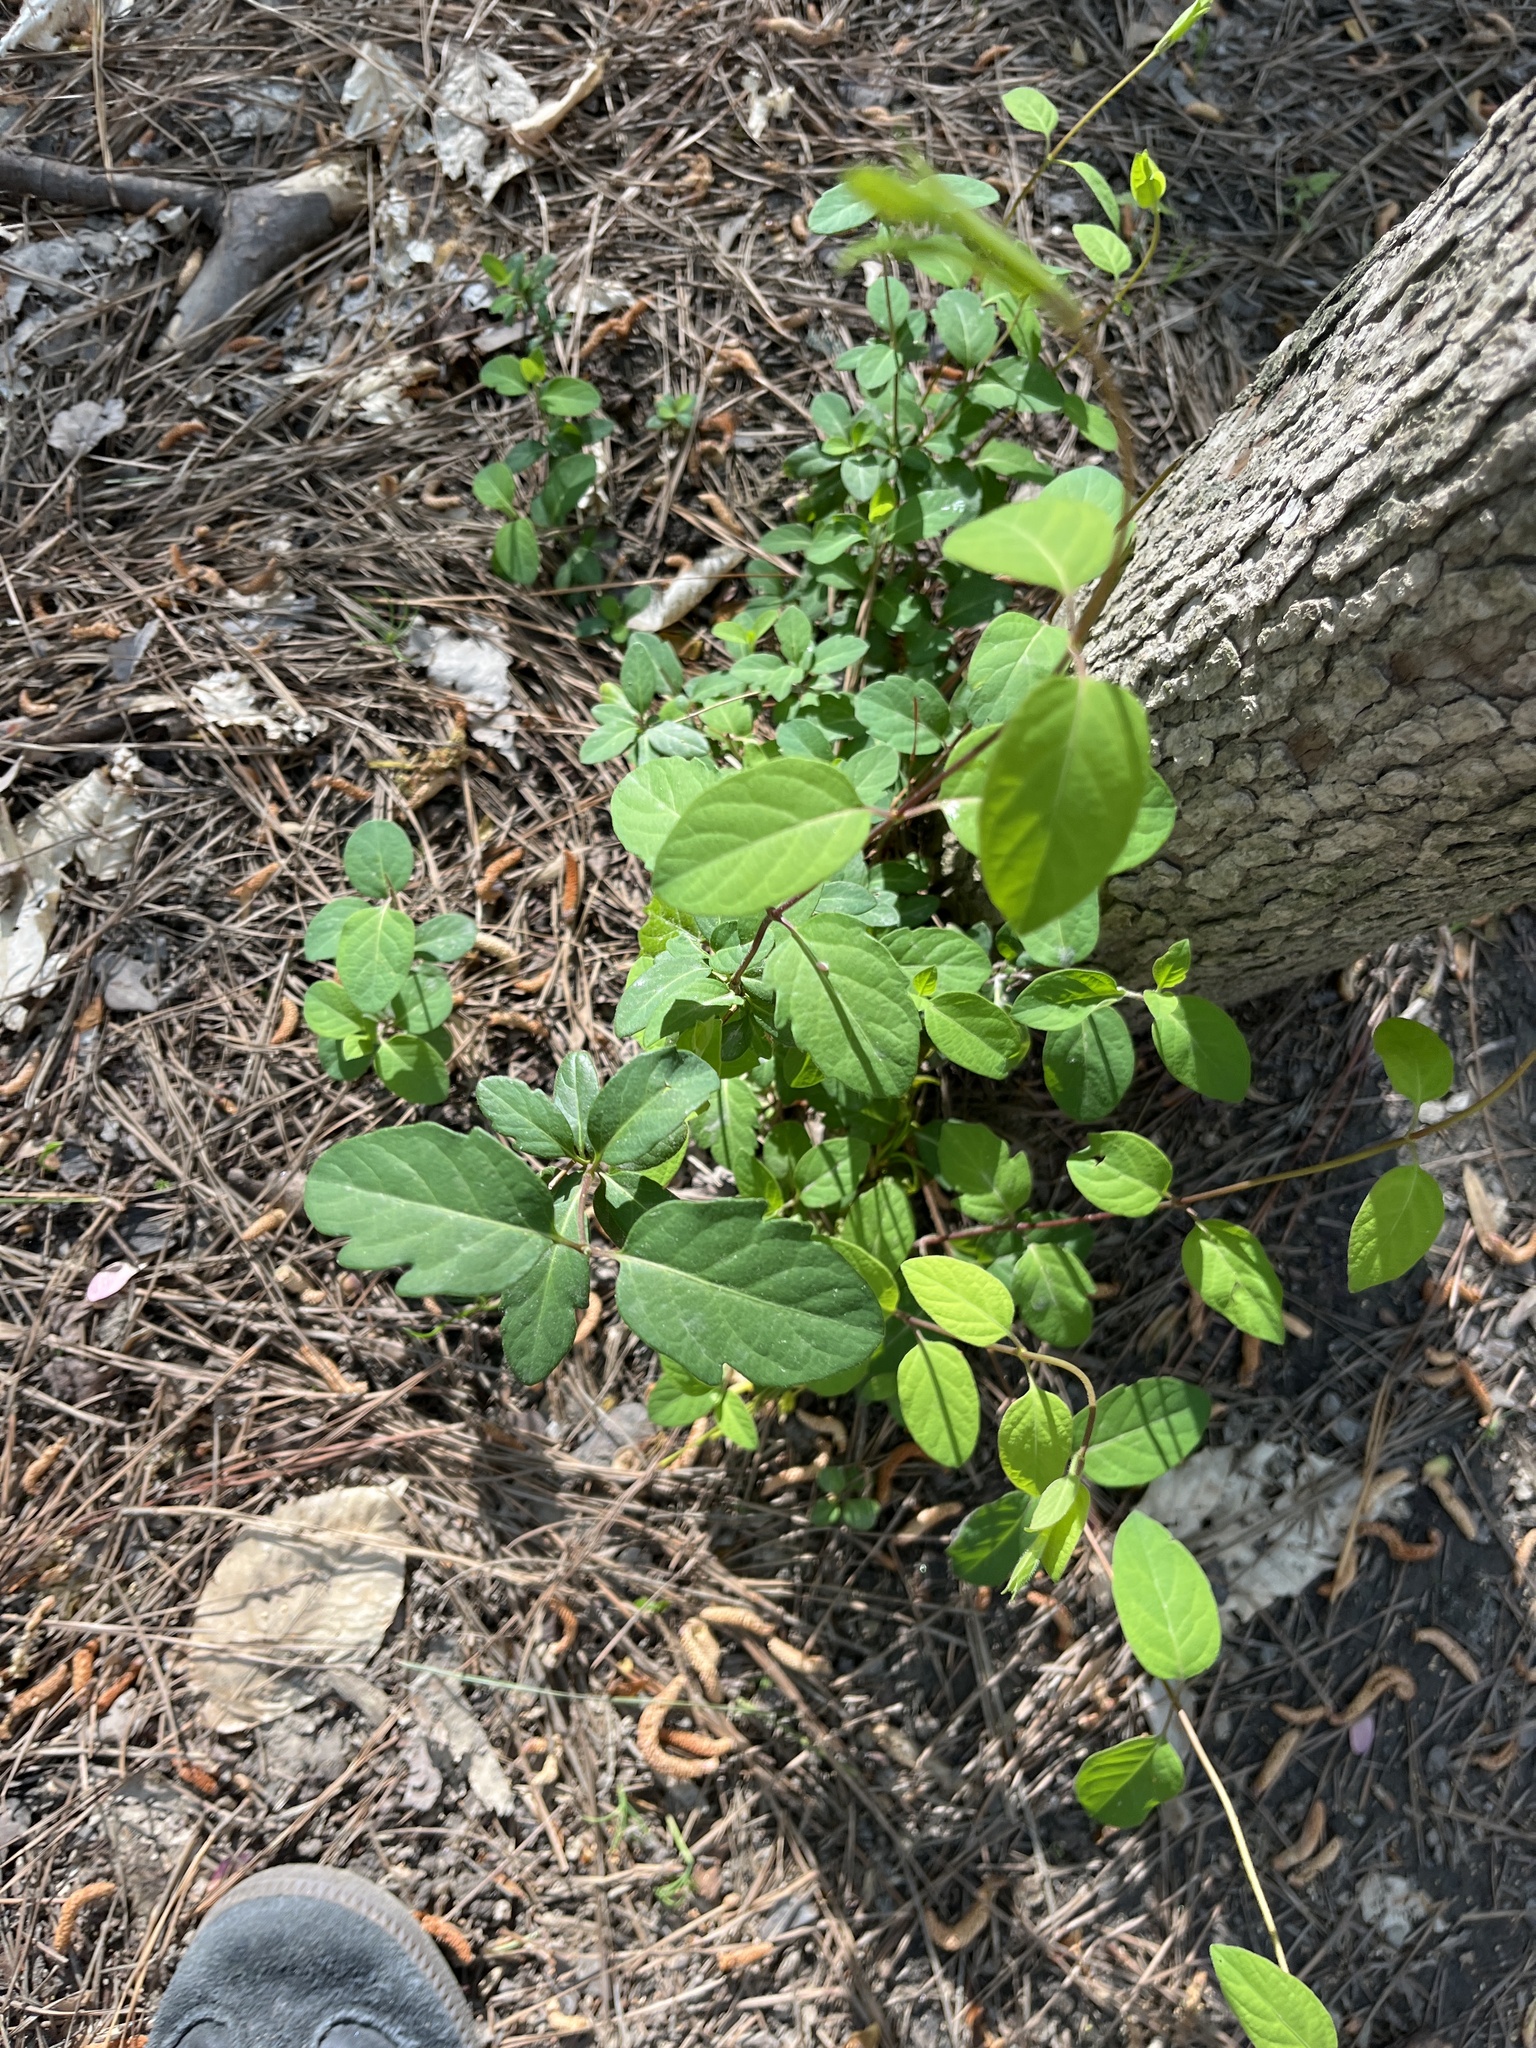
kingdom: Plantae
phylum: Tracheophyta
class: Magnoliopsida
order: Dipsacales
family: Caprifoliaceae
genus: Lonicera
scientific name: Lonicera japonica
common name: Japanese honeysuckle
